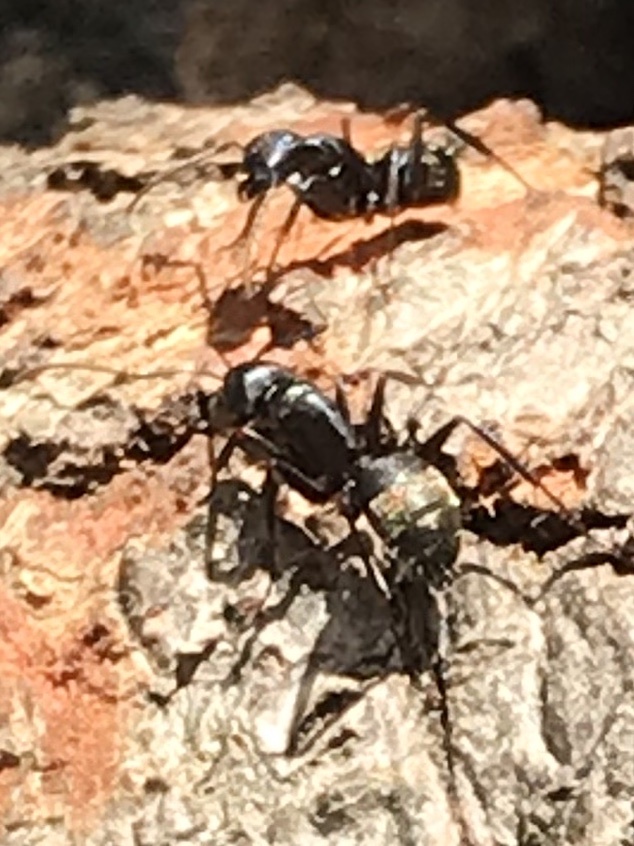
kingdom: Animalia
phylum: Arthropoda
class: Insecta
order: Hymenoptera
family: Formicidae
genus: Camponotus
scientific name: Camponotus pennsylvanicus
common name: Black carpenter ant
